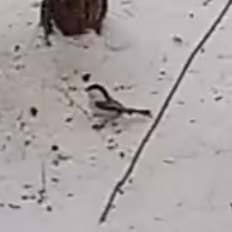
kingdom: Animalia
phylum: Chordata
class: Aves
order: Passeriformes
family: Paridae
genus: Poecile
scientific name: Poecile montanus
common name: Willow tit
